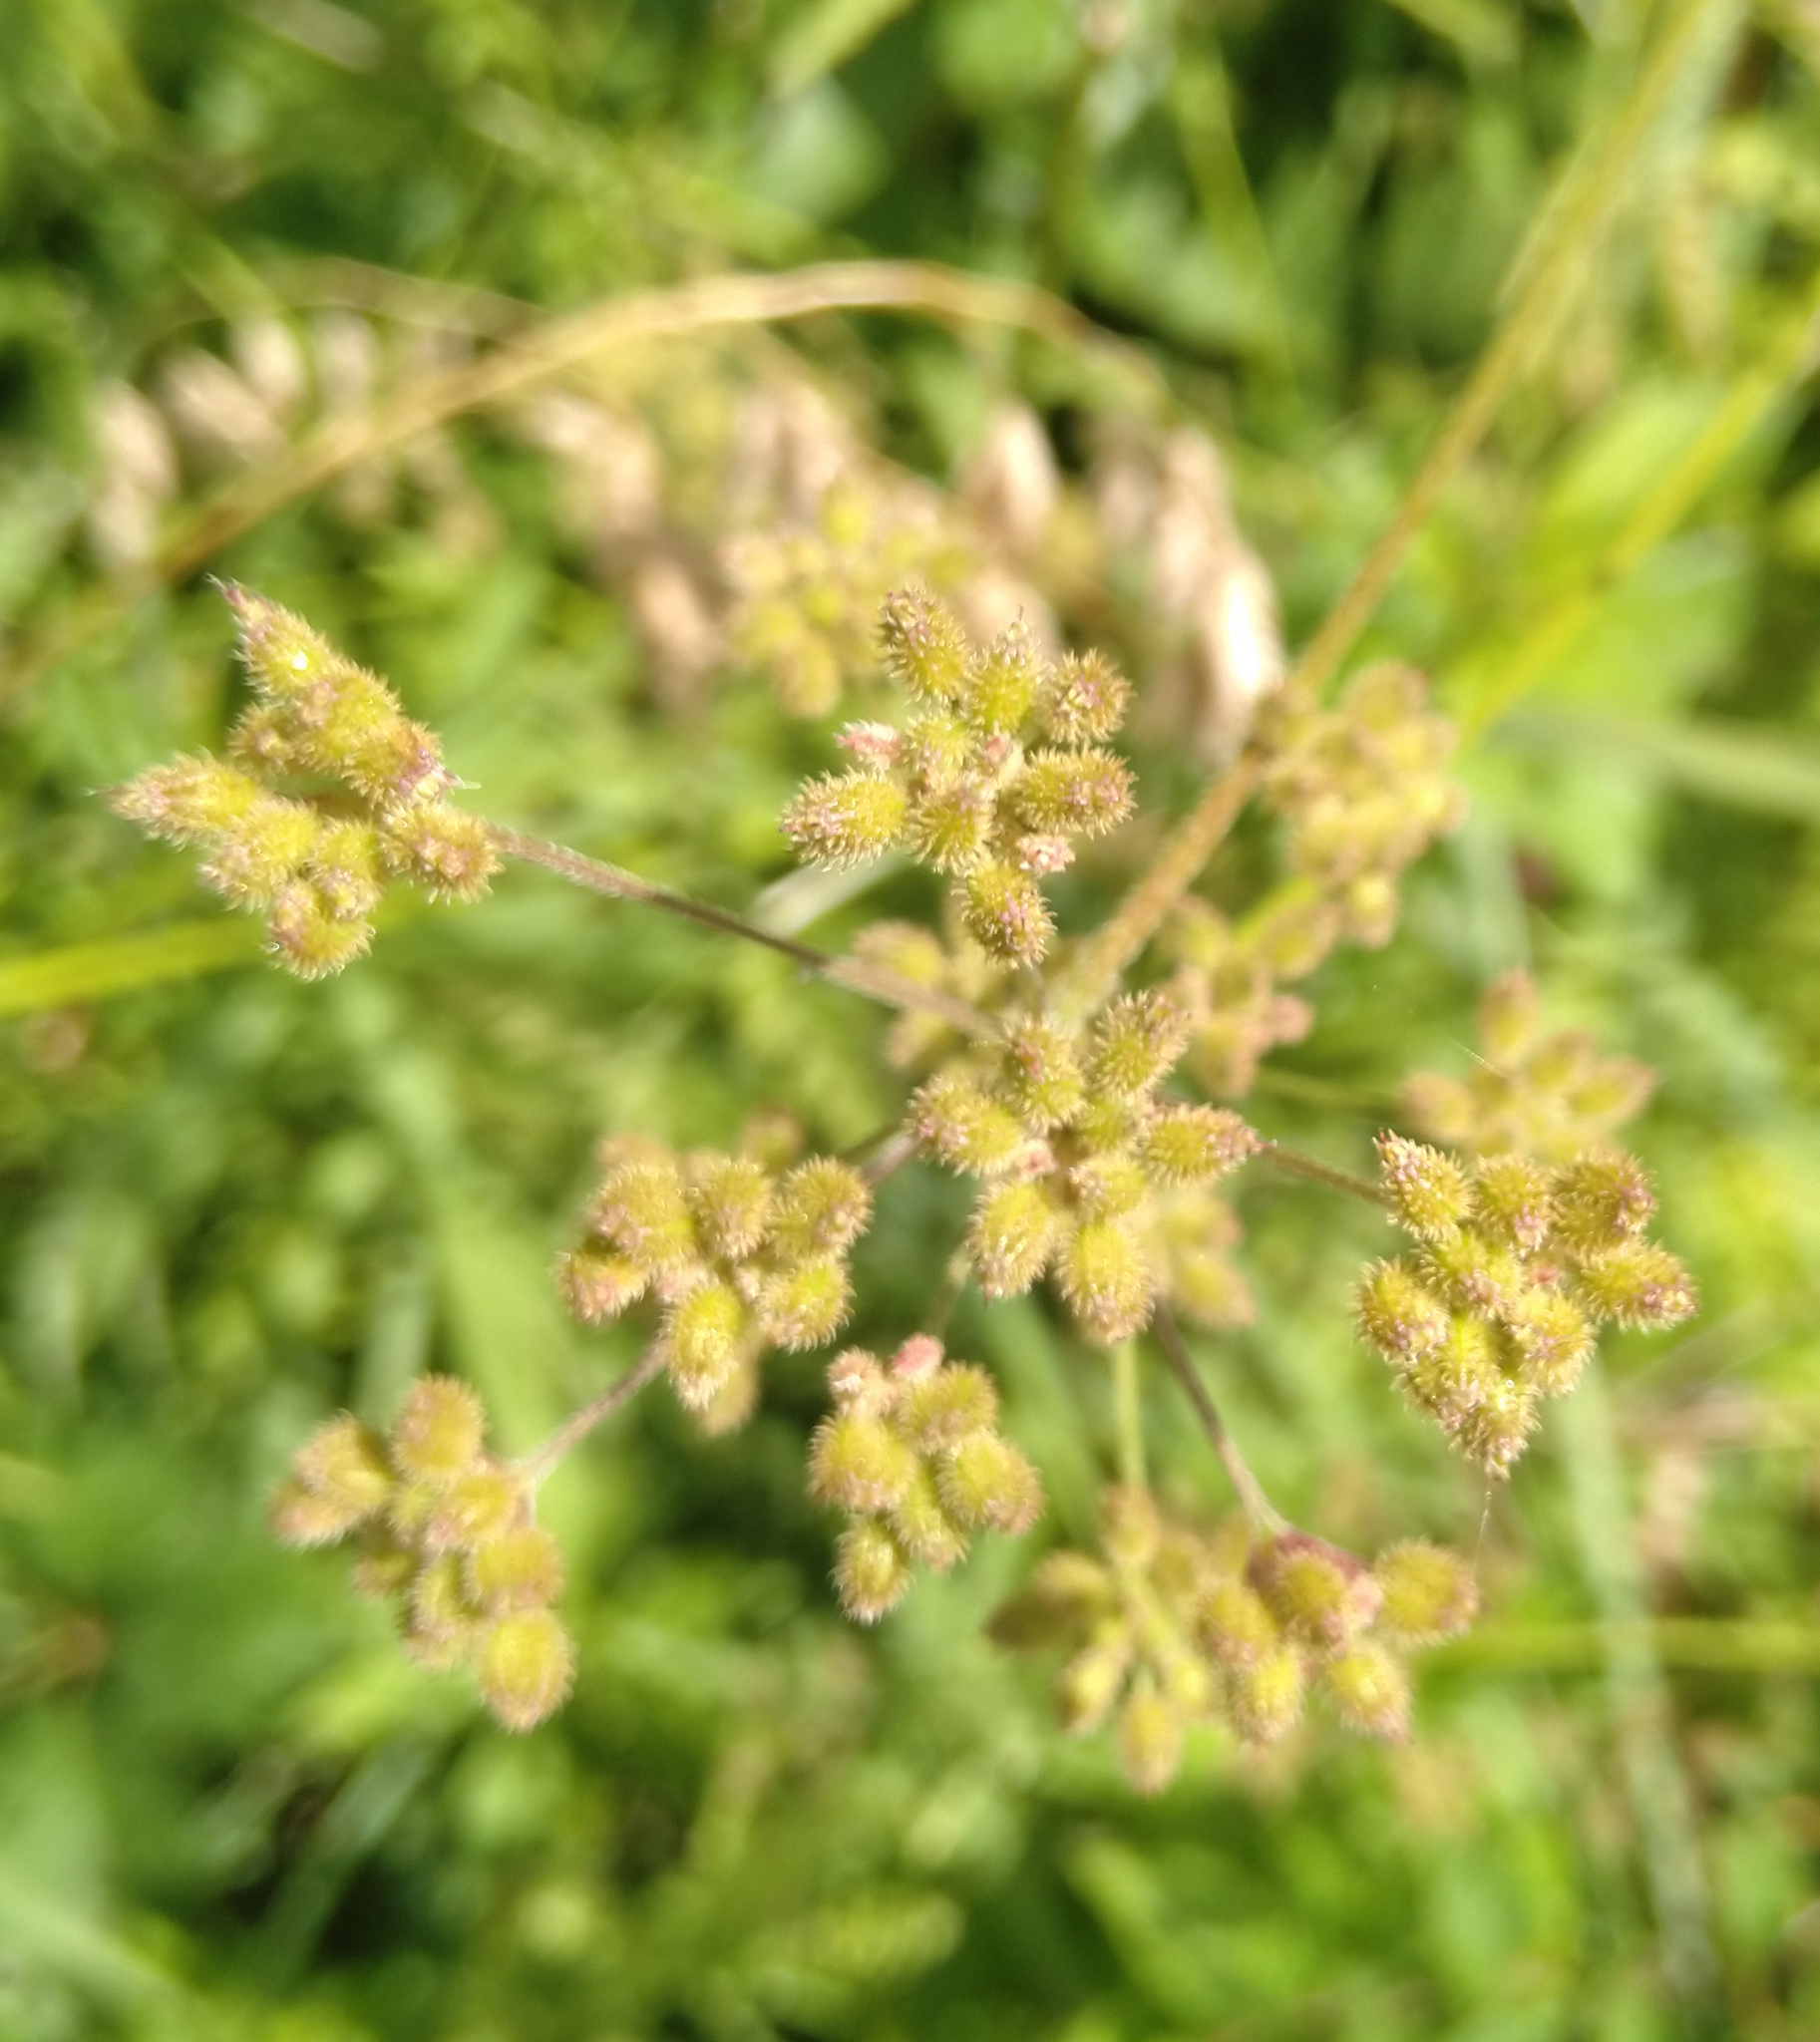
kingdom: Plantae
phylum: Tracheophyta
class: Magnoliopsida
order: Apiales
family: Apiaceae
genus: Torilis
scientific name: Torilis japonica
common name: Upright hedge-parsley
